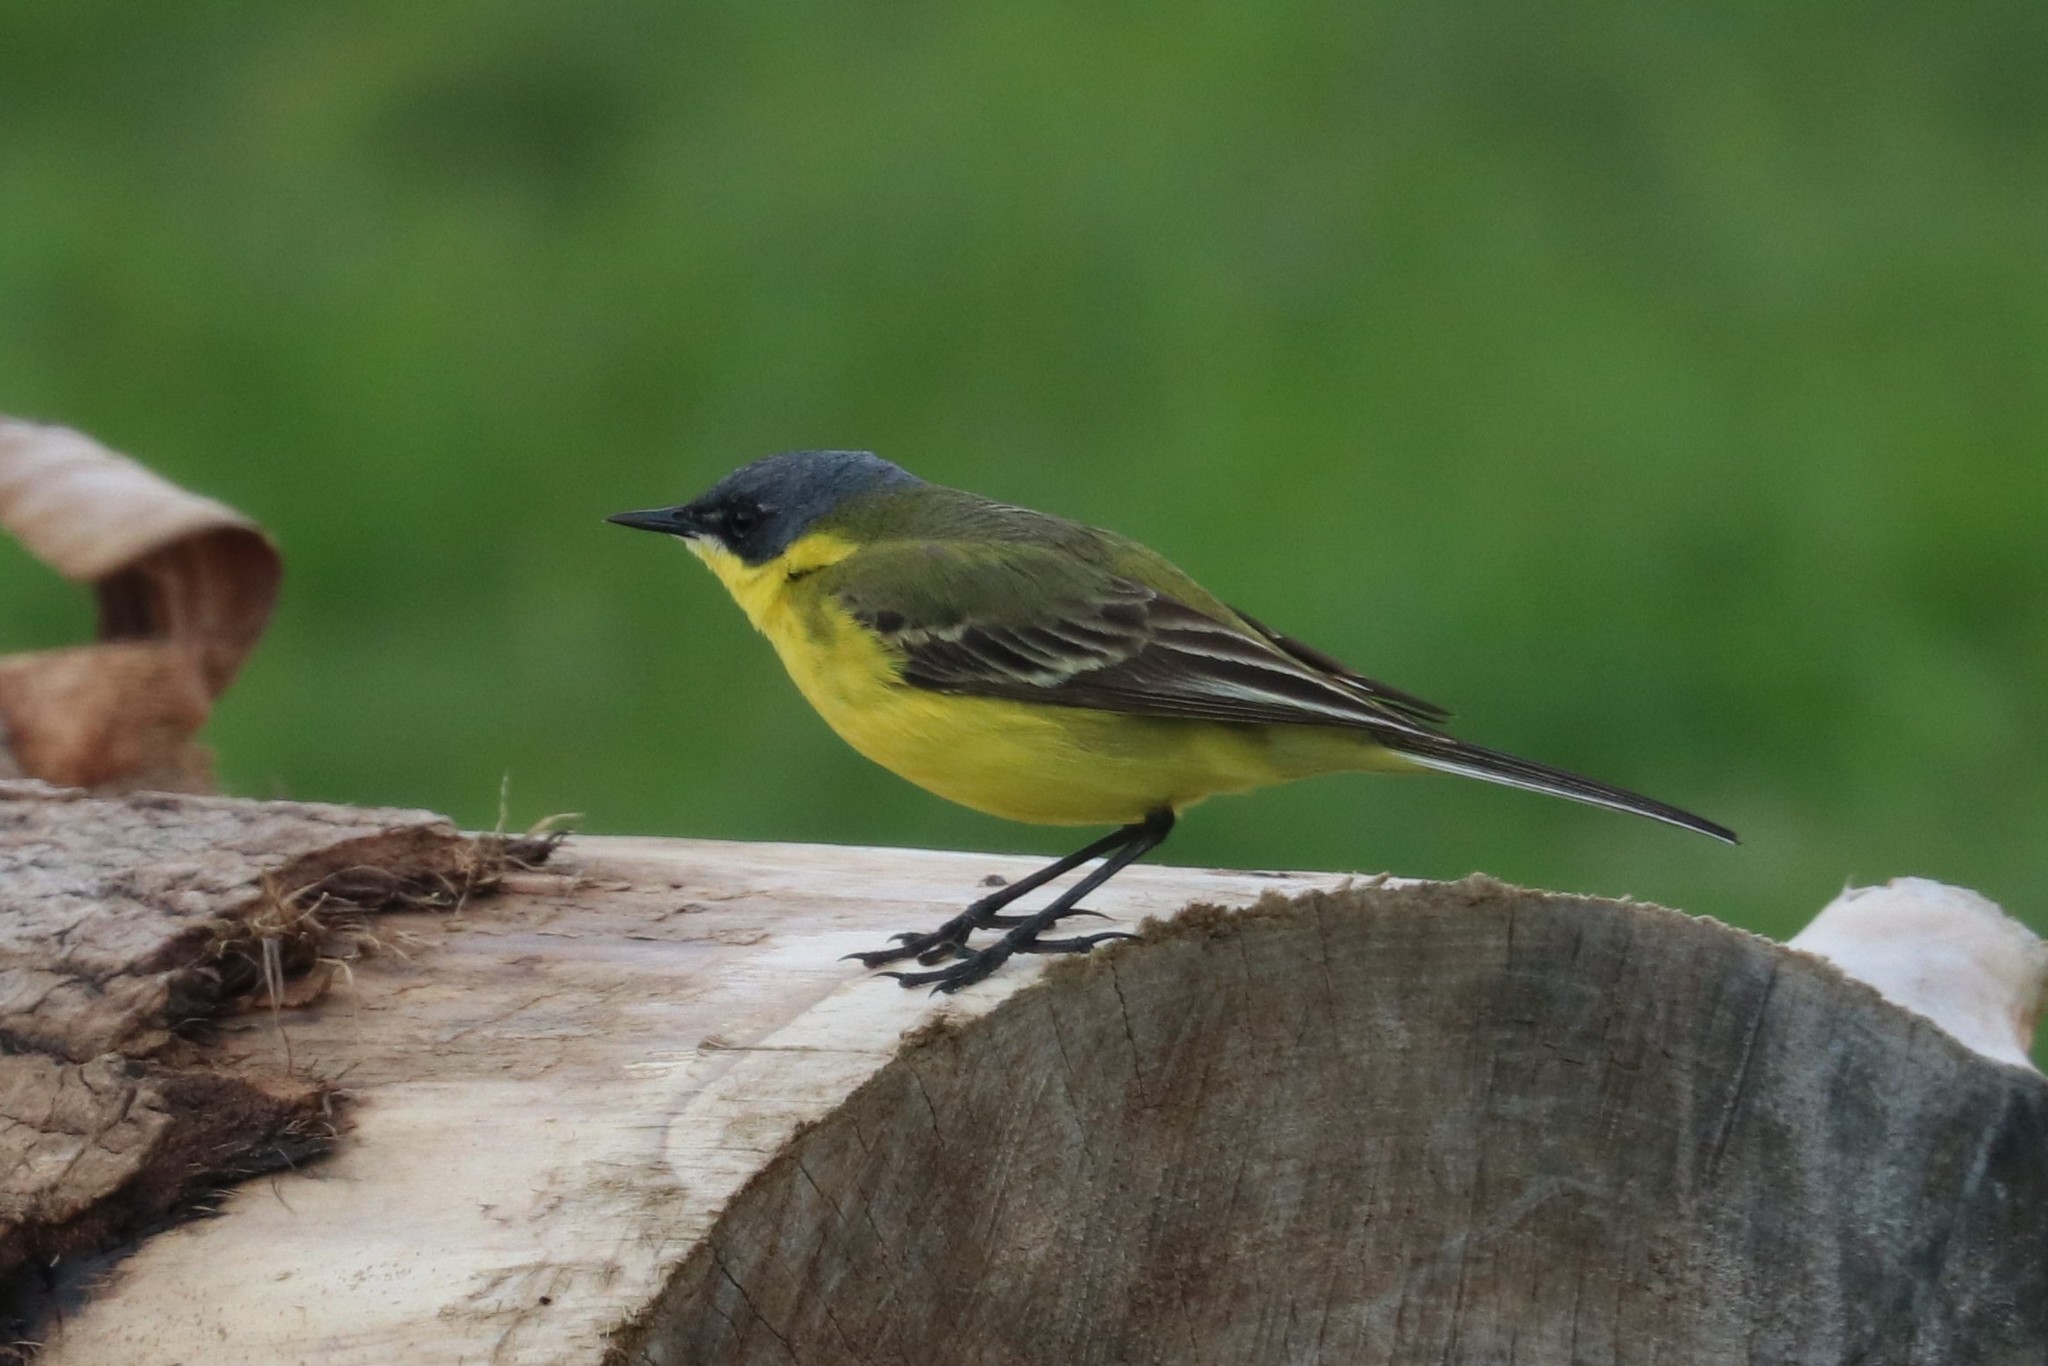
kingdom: Animalia
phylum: Chordata
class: Aves
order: Passeriformes
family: Motacillidae
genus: Motacilla
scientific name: Motacilla flava
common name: Western yellow wagtail
